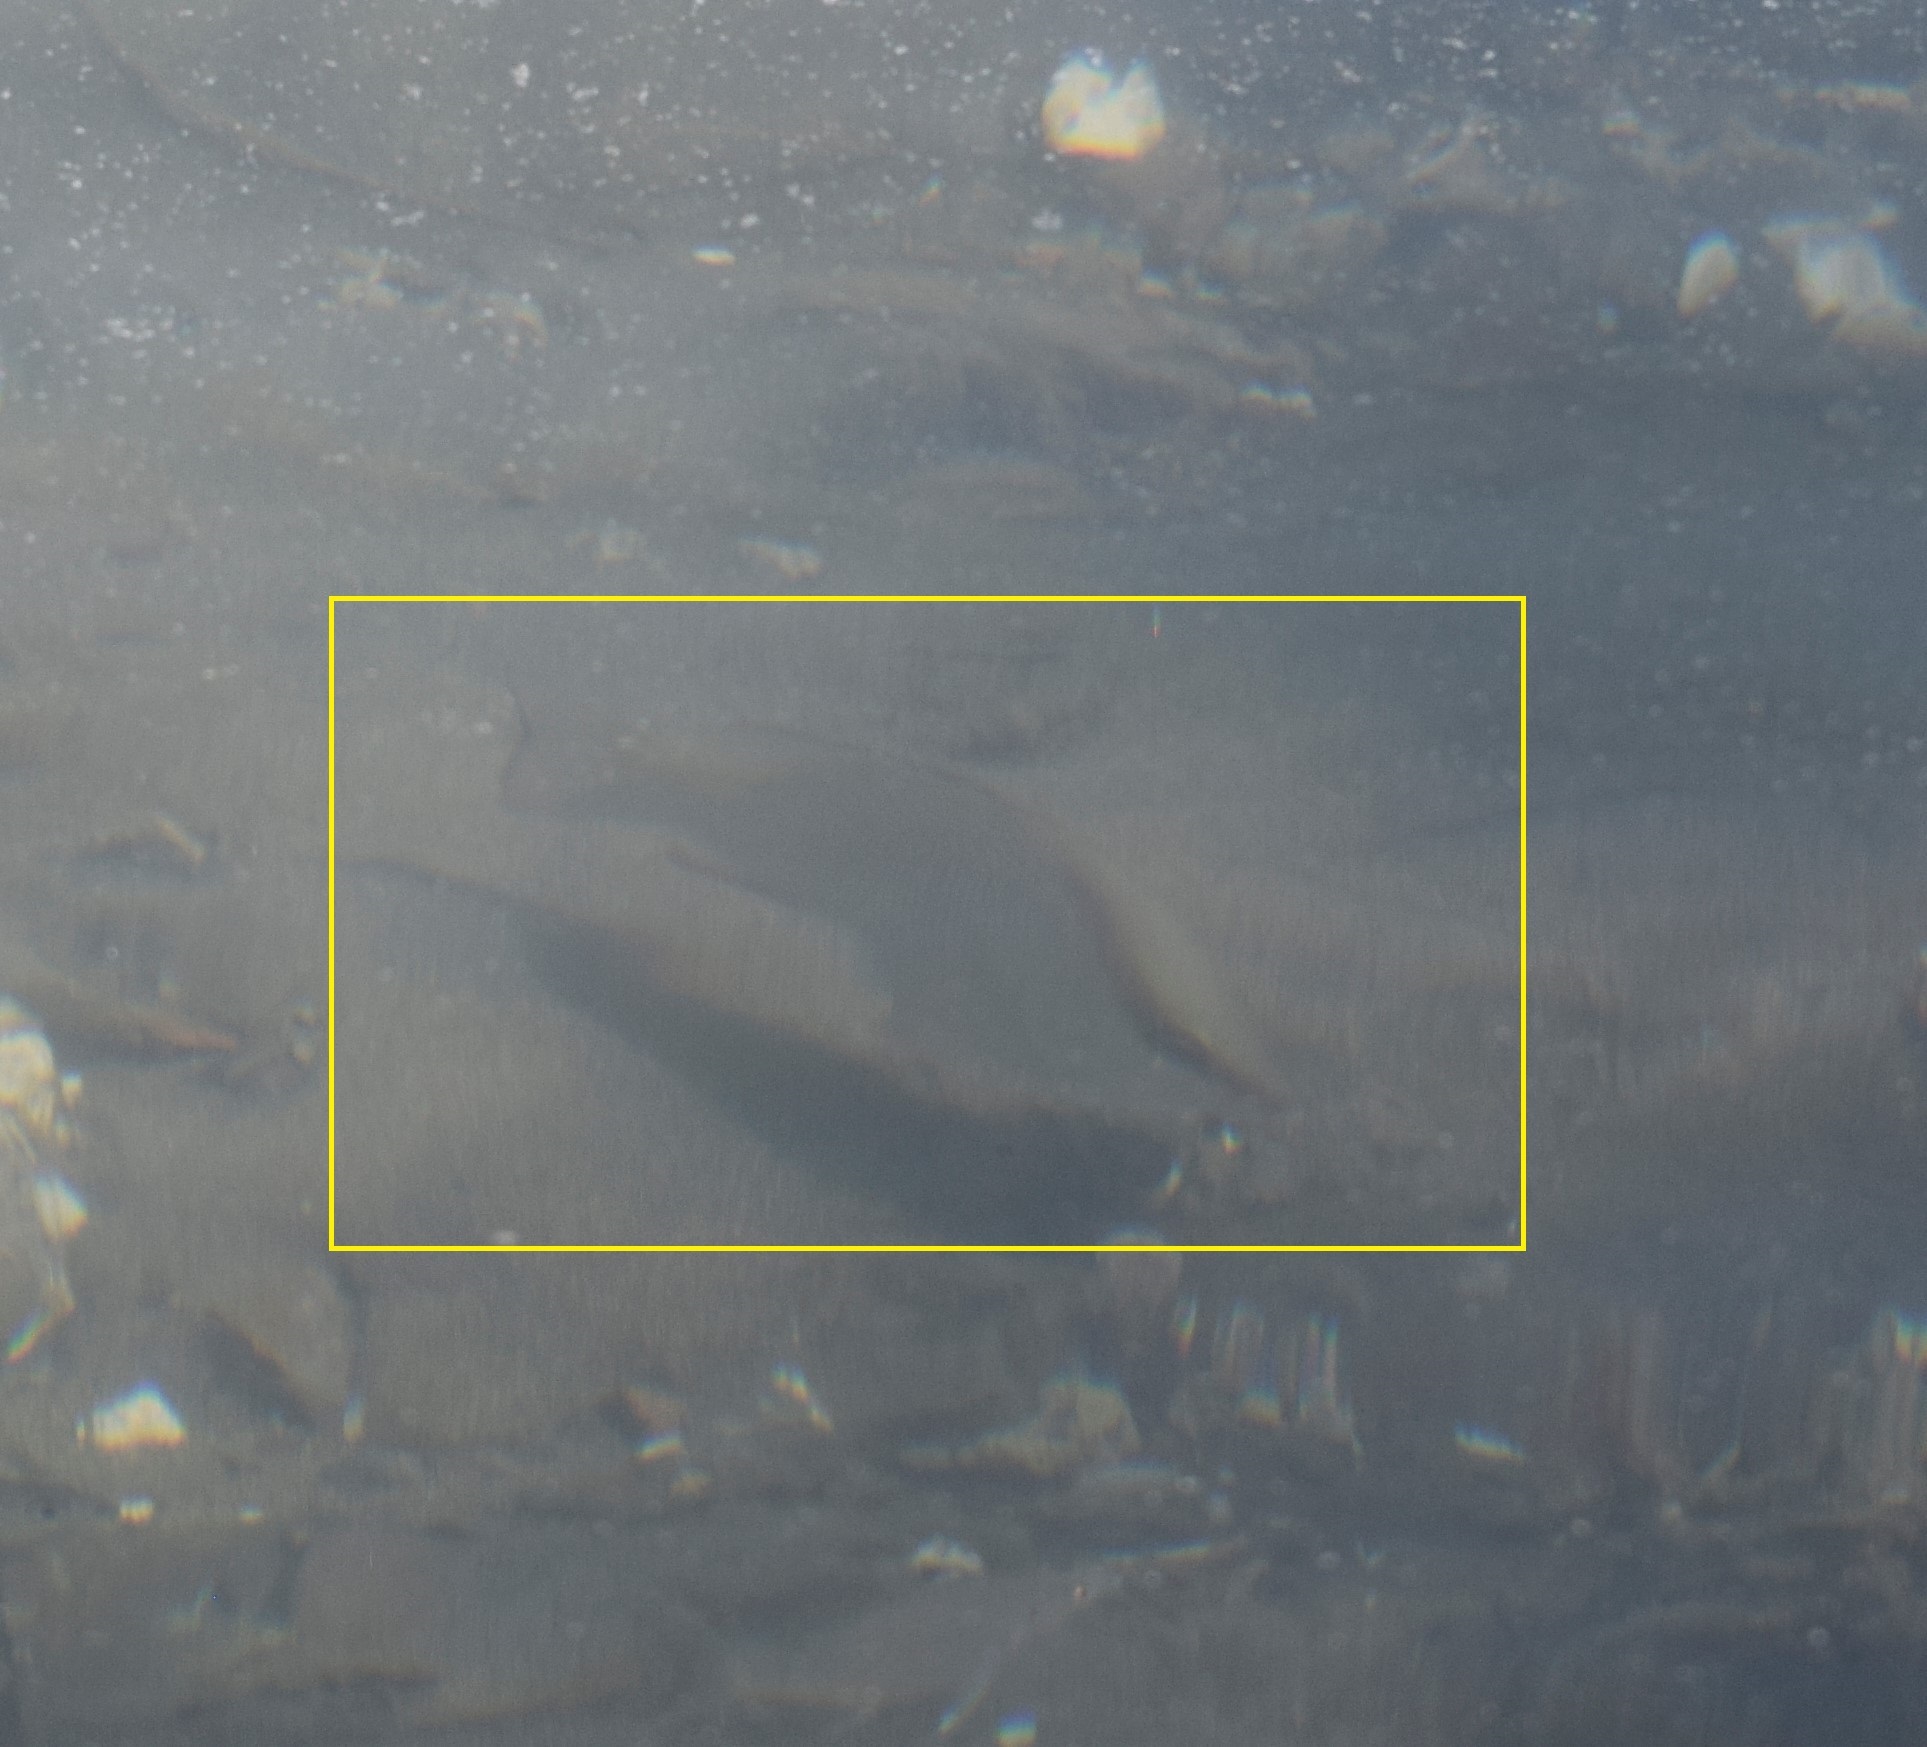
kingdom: Animalia
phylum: Chordata
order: Perciformes
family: Lutjanidae
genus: Lutjanus
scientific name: Lutjanus griseus
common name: Gray snapper
